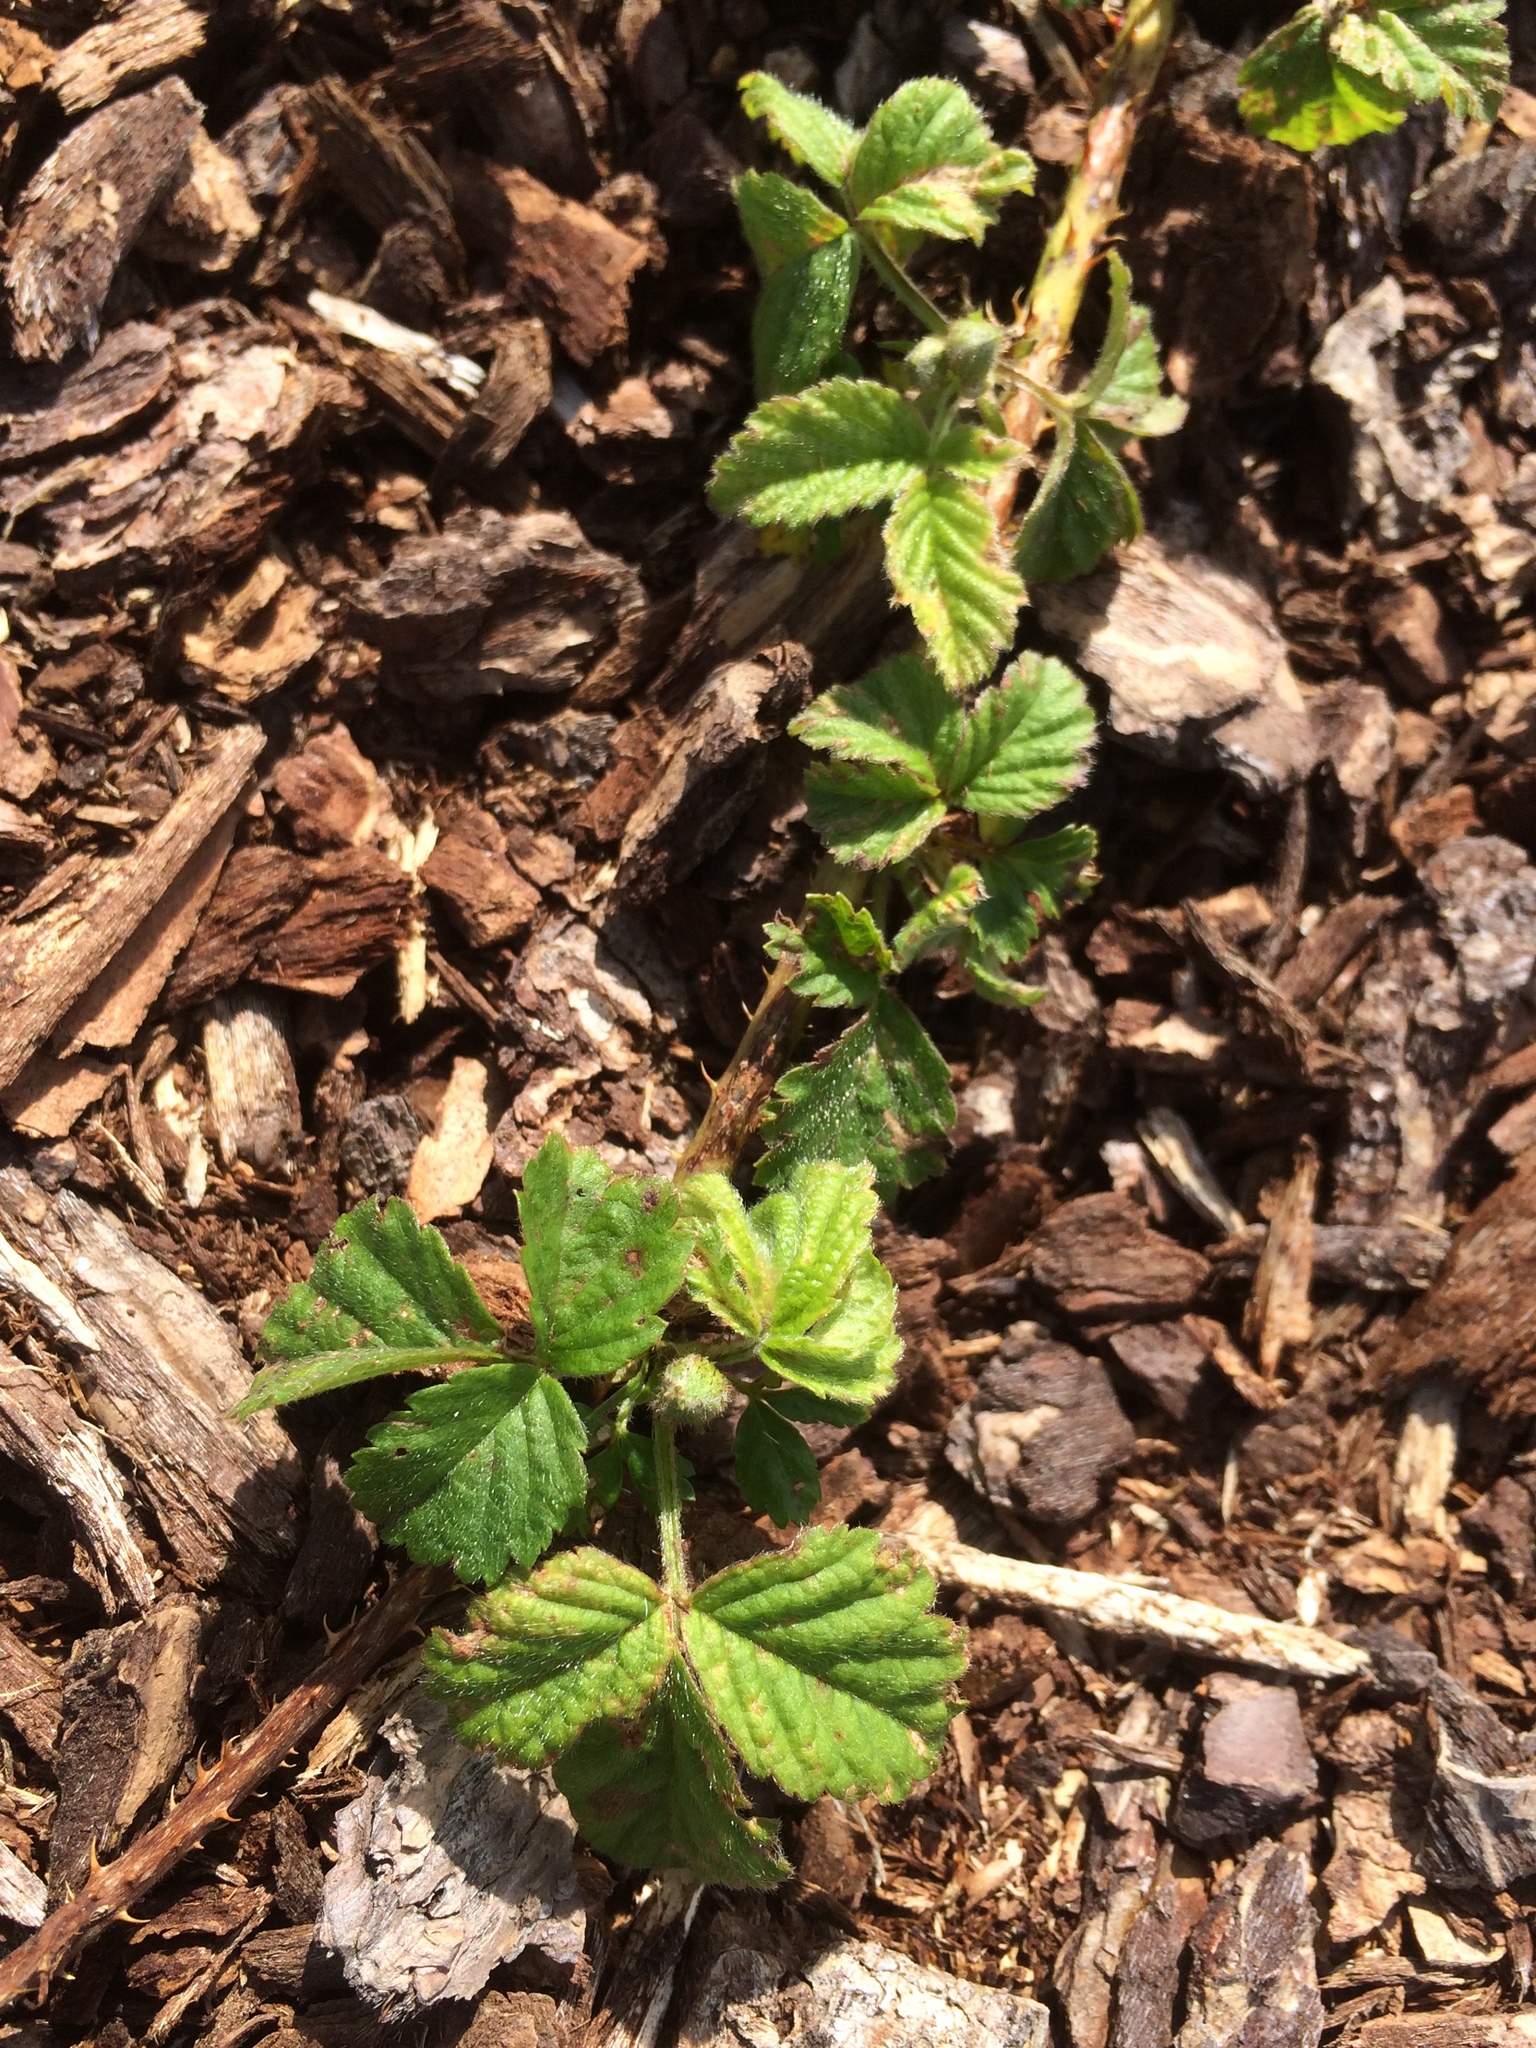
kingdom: Plantae
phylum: Tracheophyta
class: Magnoliopsida
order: Rosales
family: Rosaceae
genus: Rubus
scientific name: Rubus ursinus
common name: Pacific blackberry
